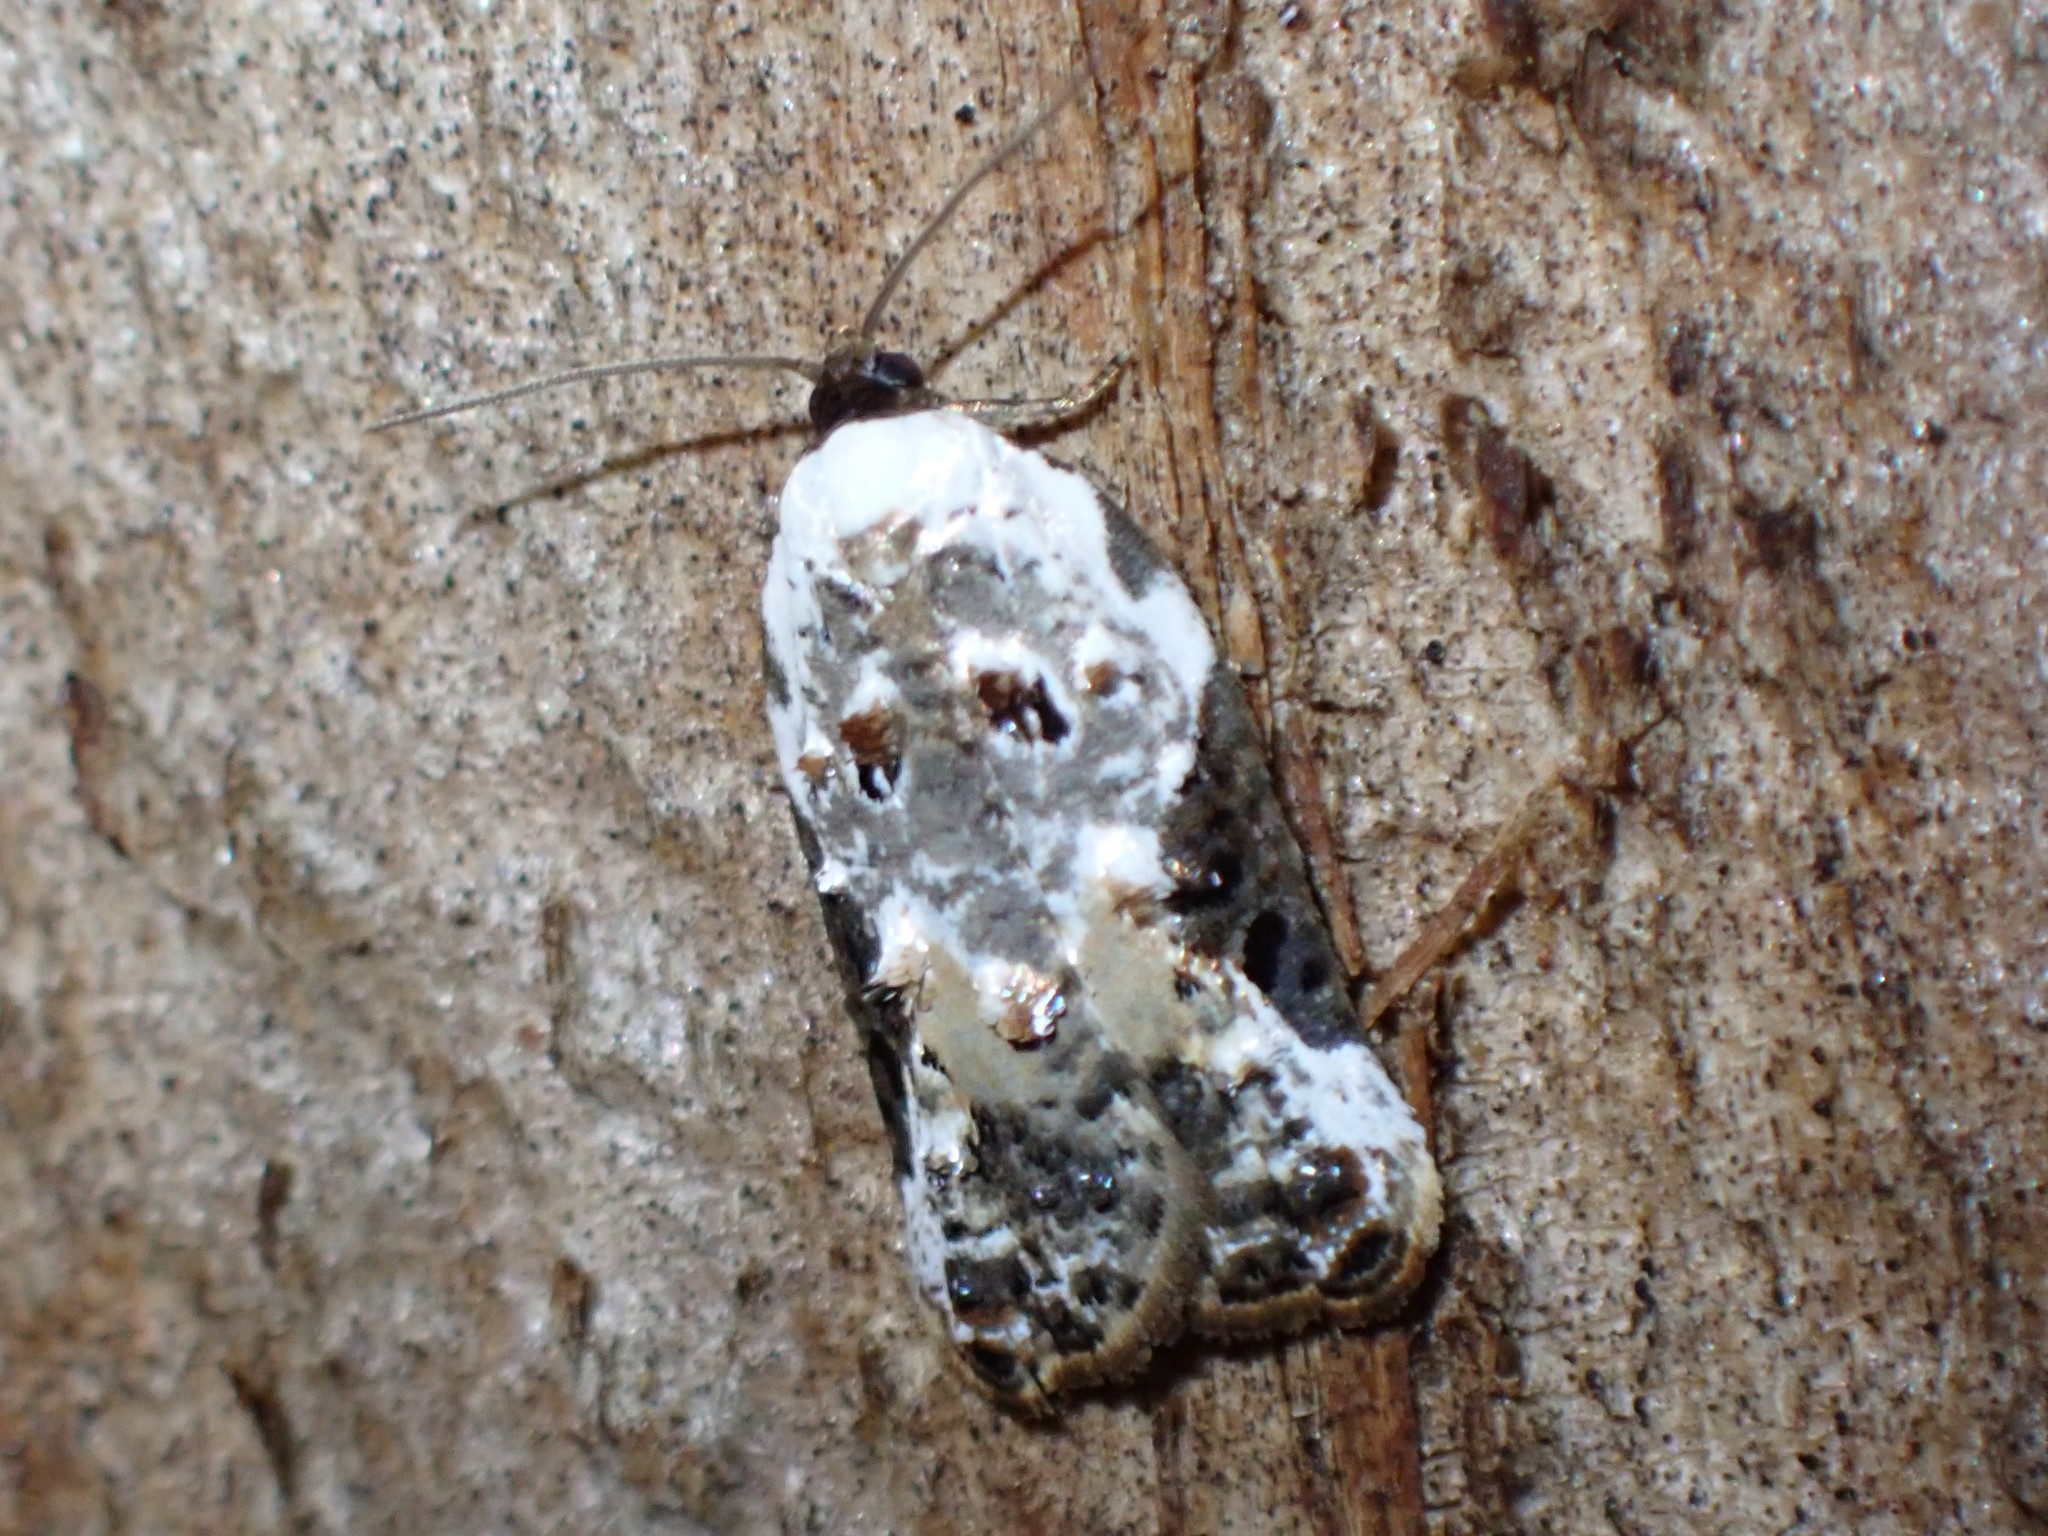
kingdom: Animalia
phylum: Arthropoda
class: Insecta
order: Lepidoptera
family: Tortricidae
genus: Acleris
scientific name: Acleris nivisellana
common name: Snowy-shouldered acleris moth
